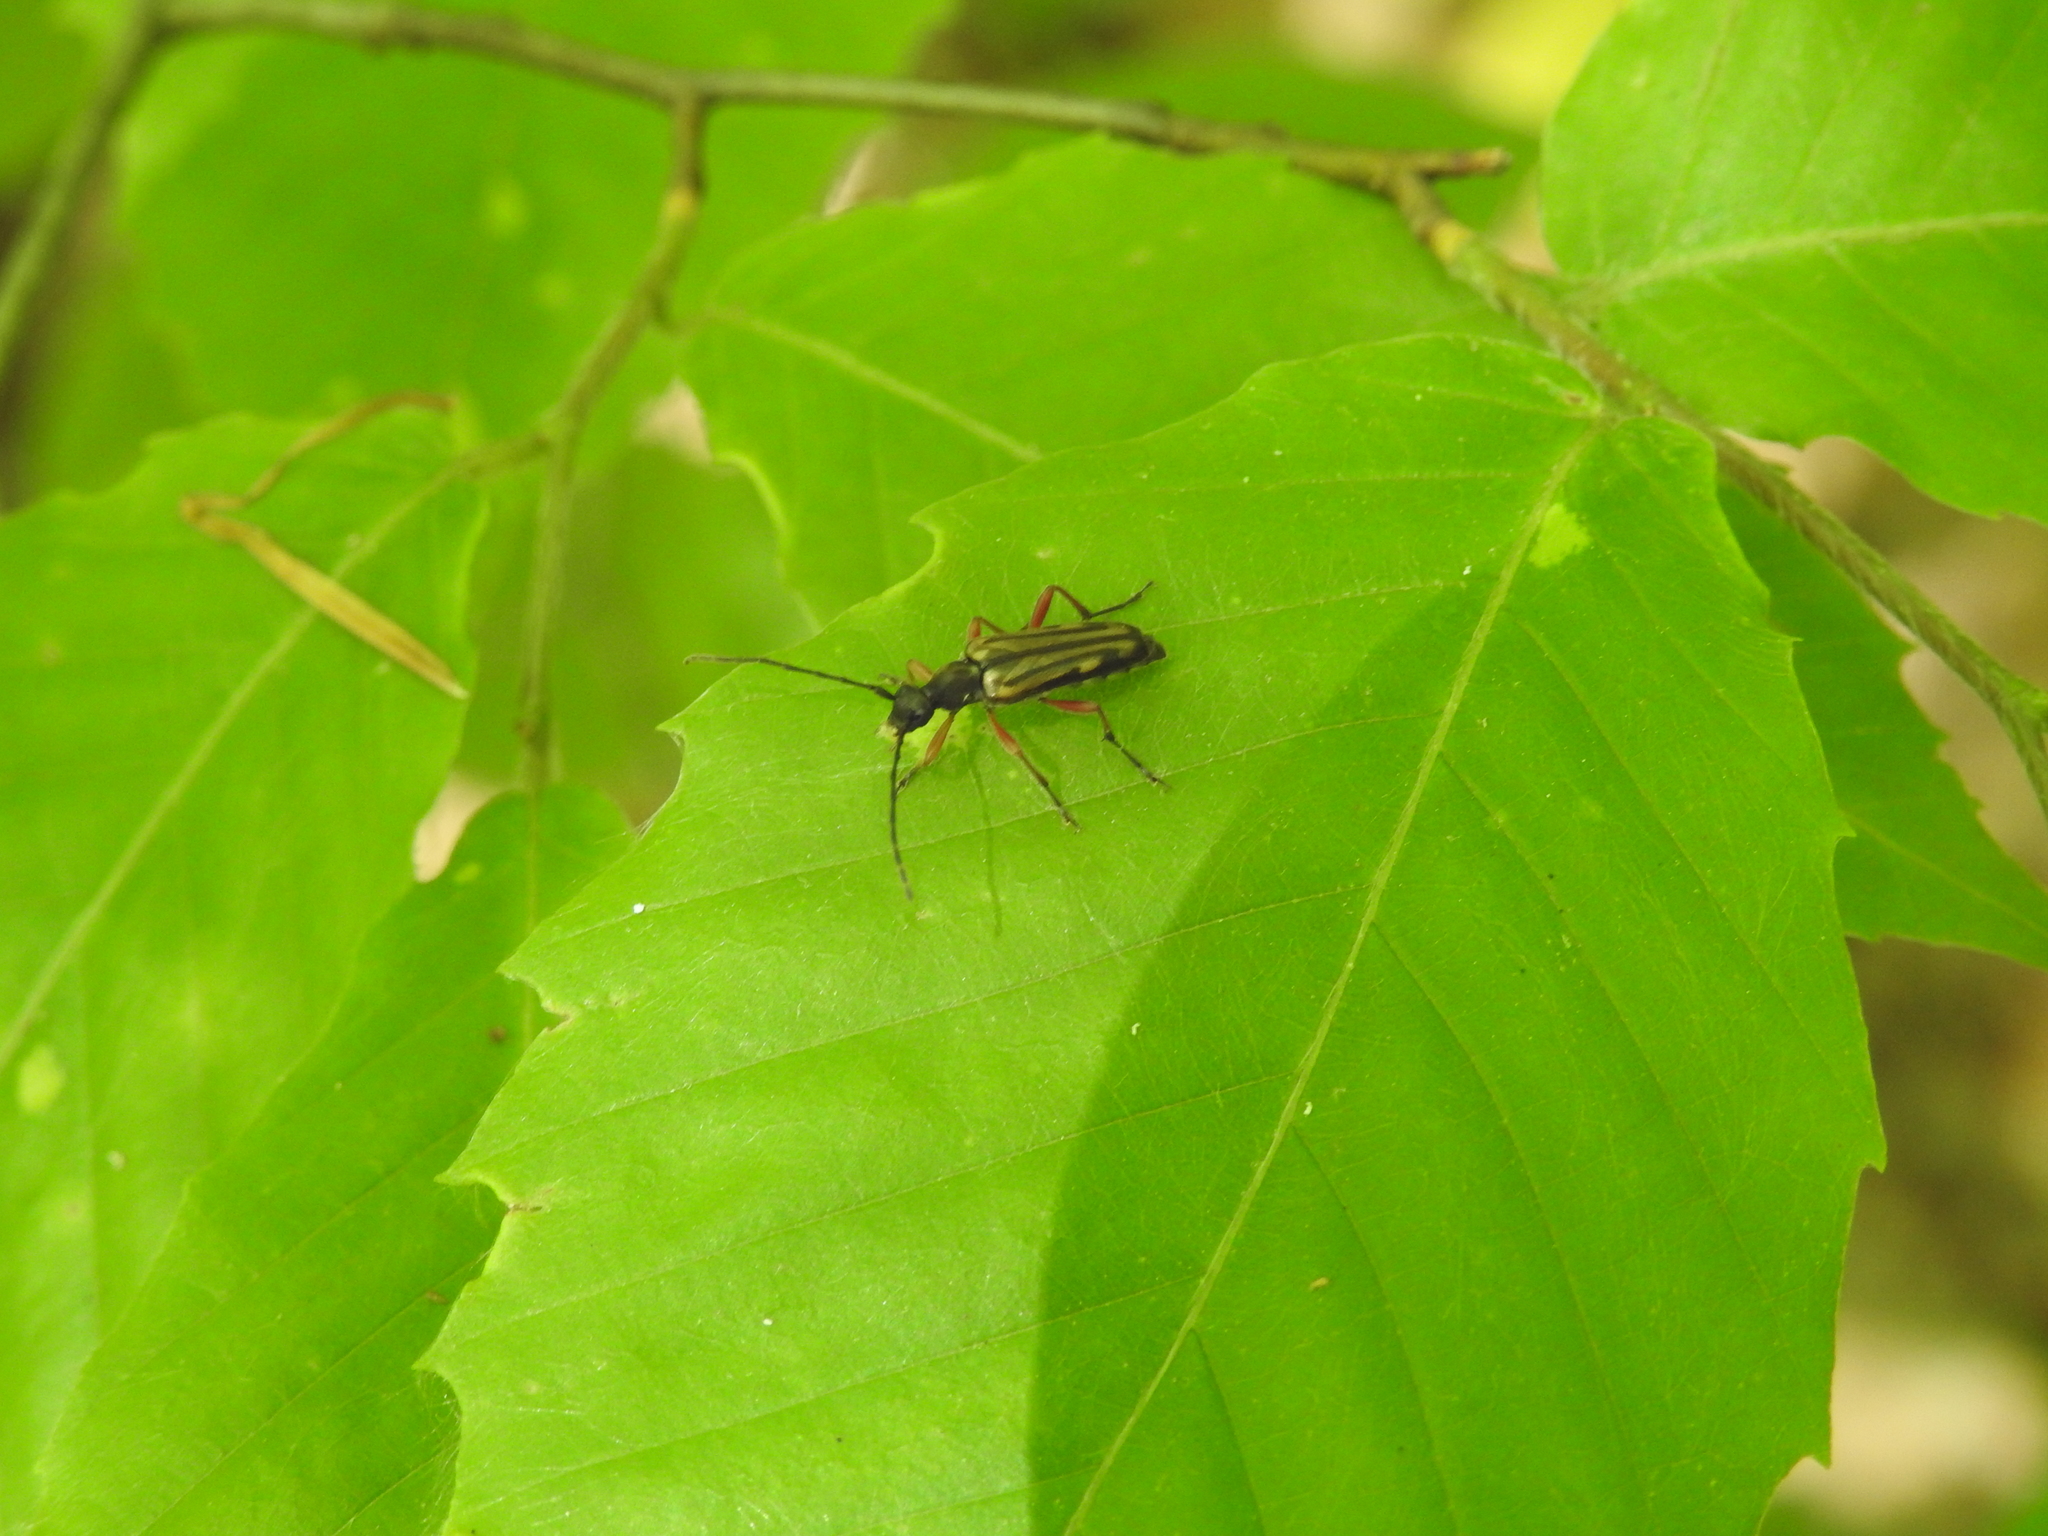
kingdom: Animalia
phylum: Arthropoda
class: Insecta
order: Coleoptera
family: Cerambycidae
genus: Analeptura
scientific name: Analeptura lineola
